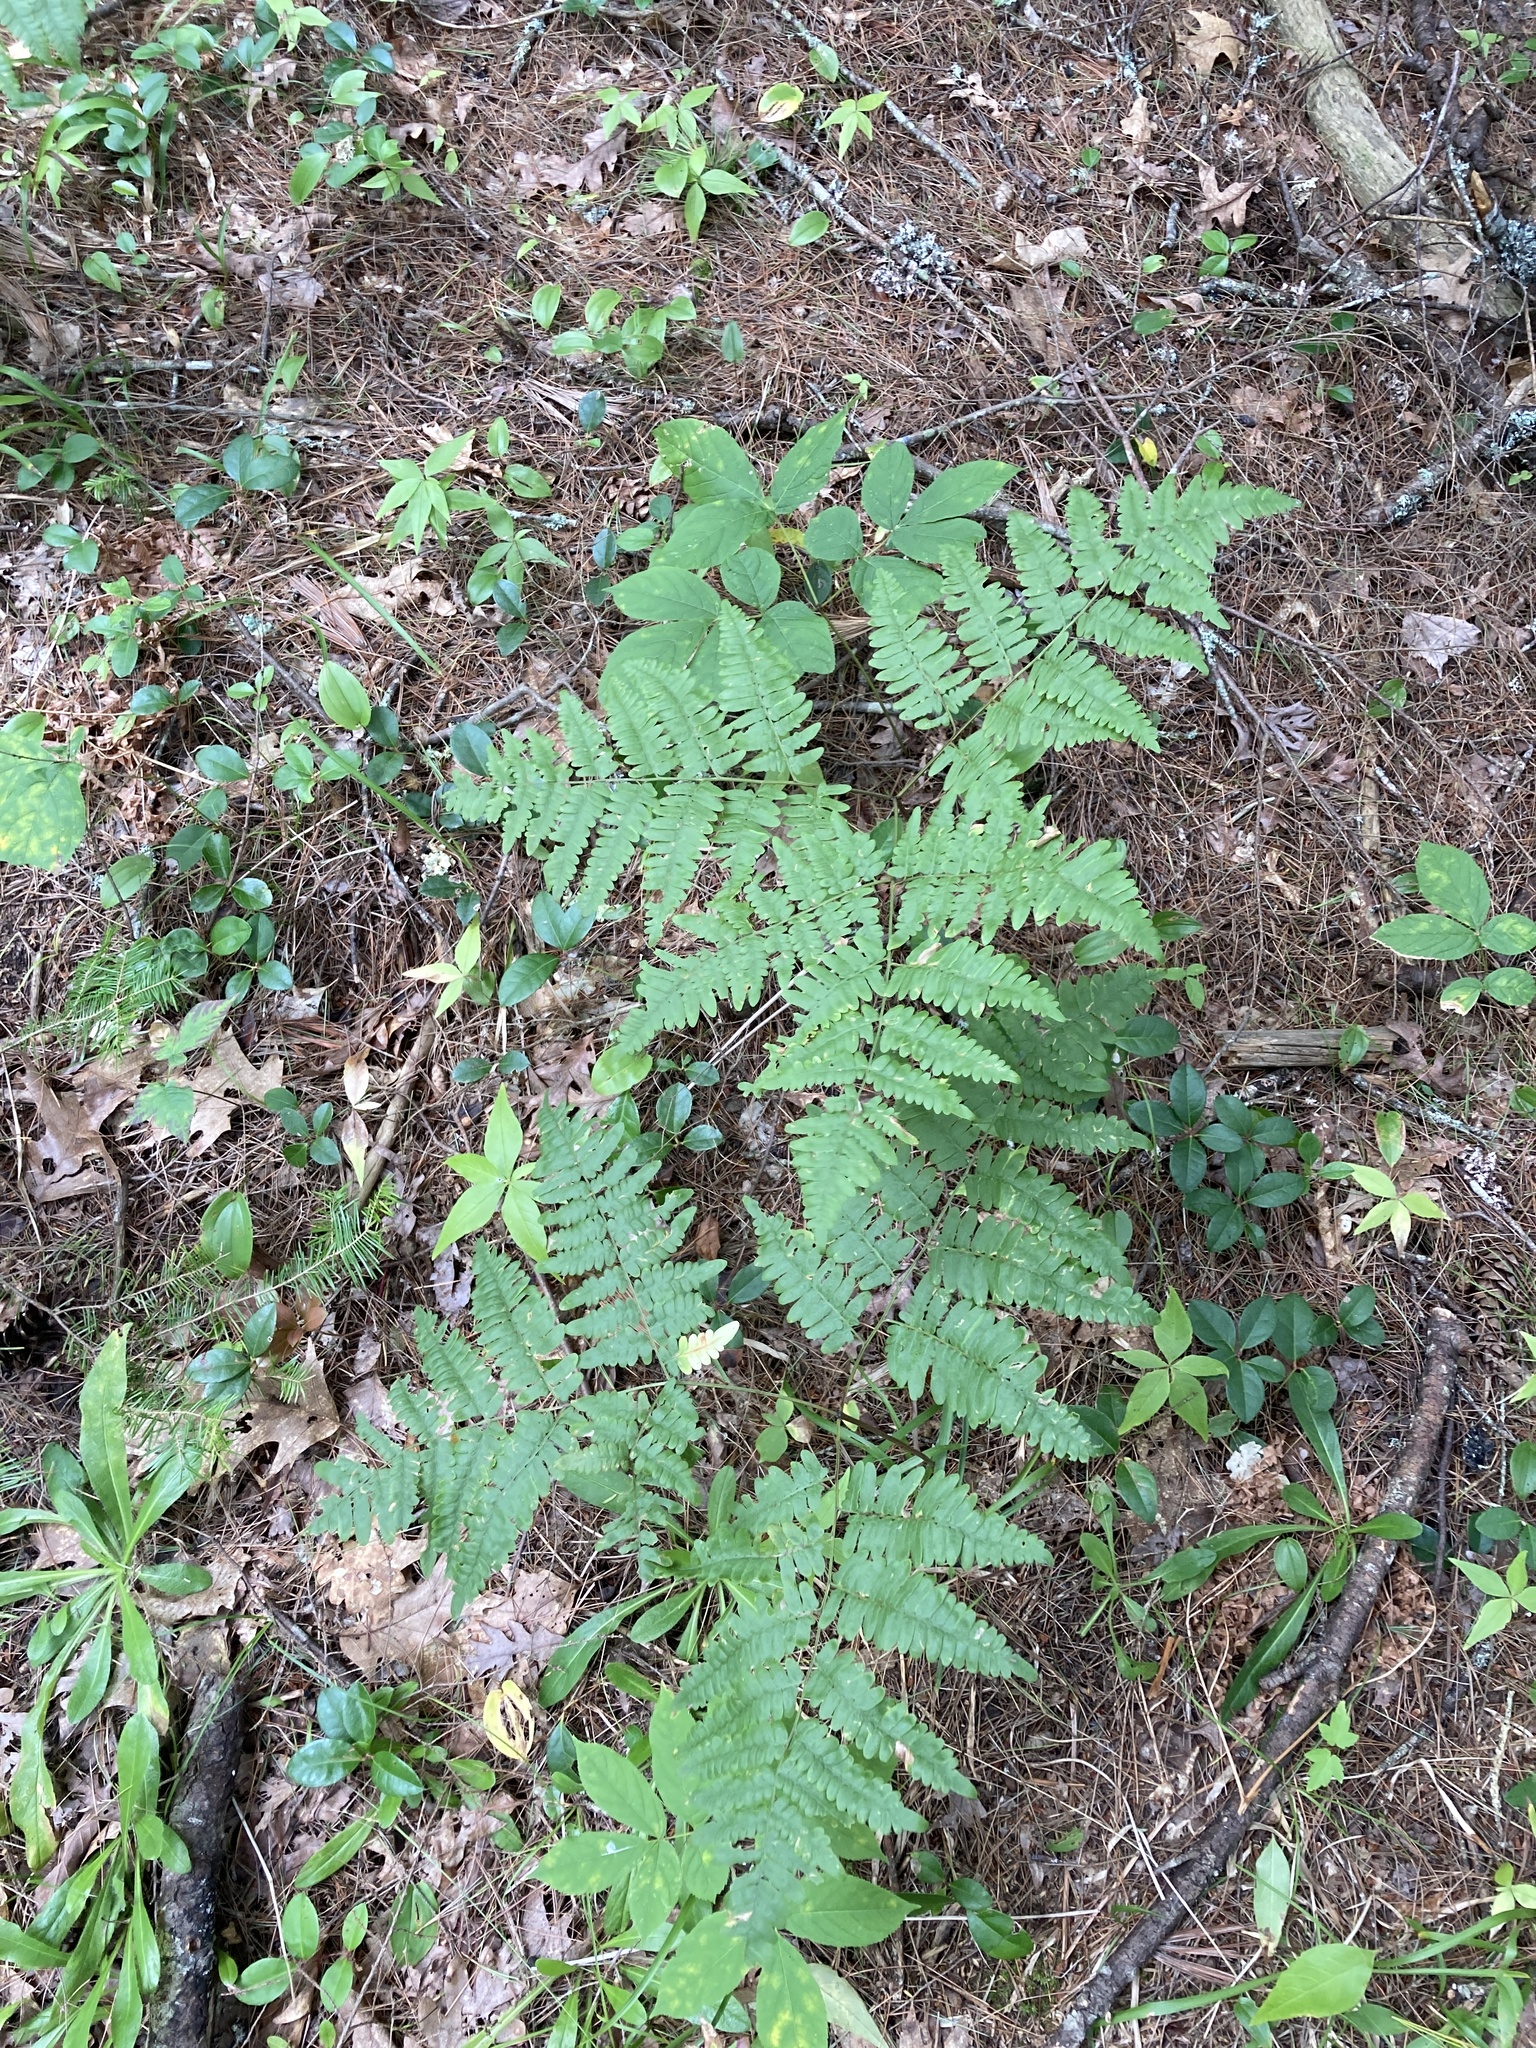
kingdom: Plantae
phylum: Tracheophyta
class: Magnoliopsida
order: Apiales
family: Araliaceae
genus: Aralia
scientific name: Aralia nudicaulis
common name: Wild sarsaparilla
